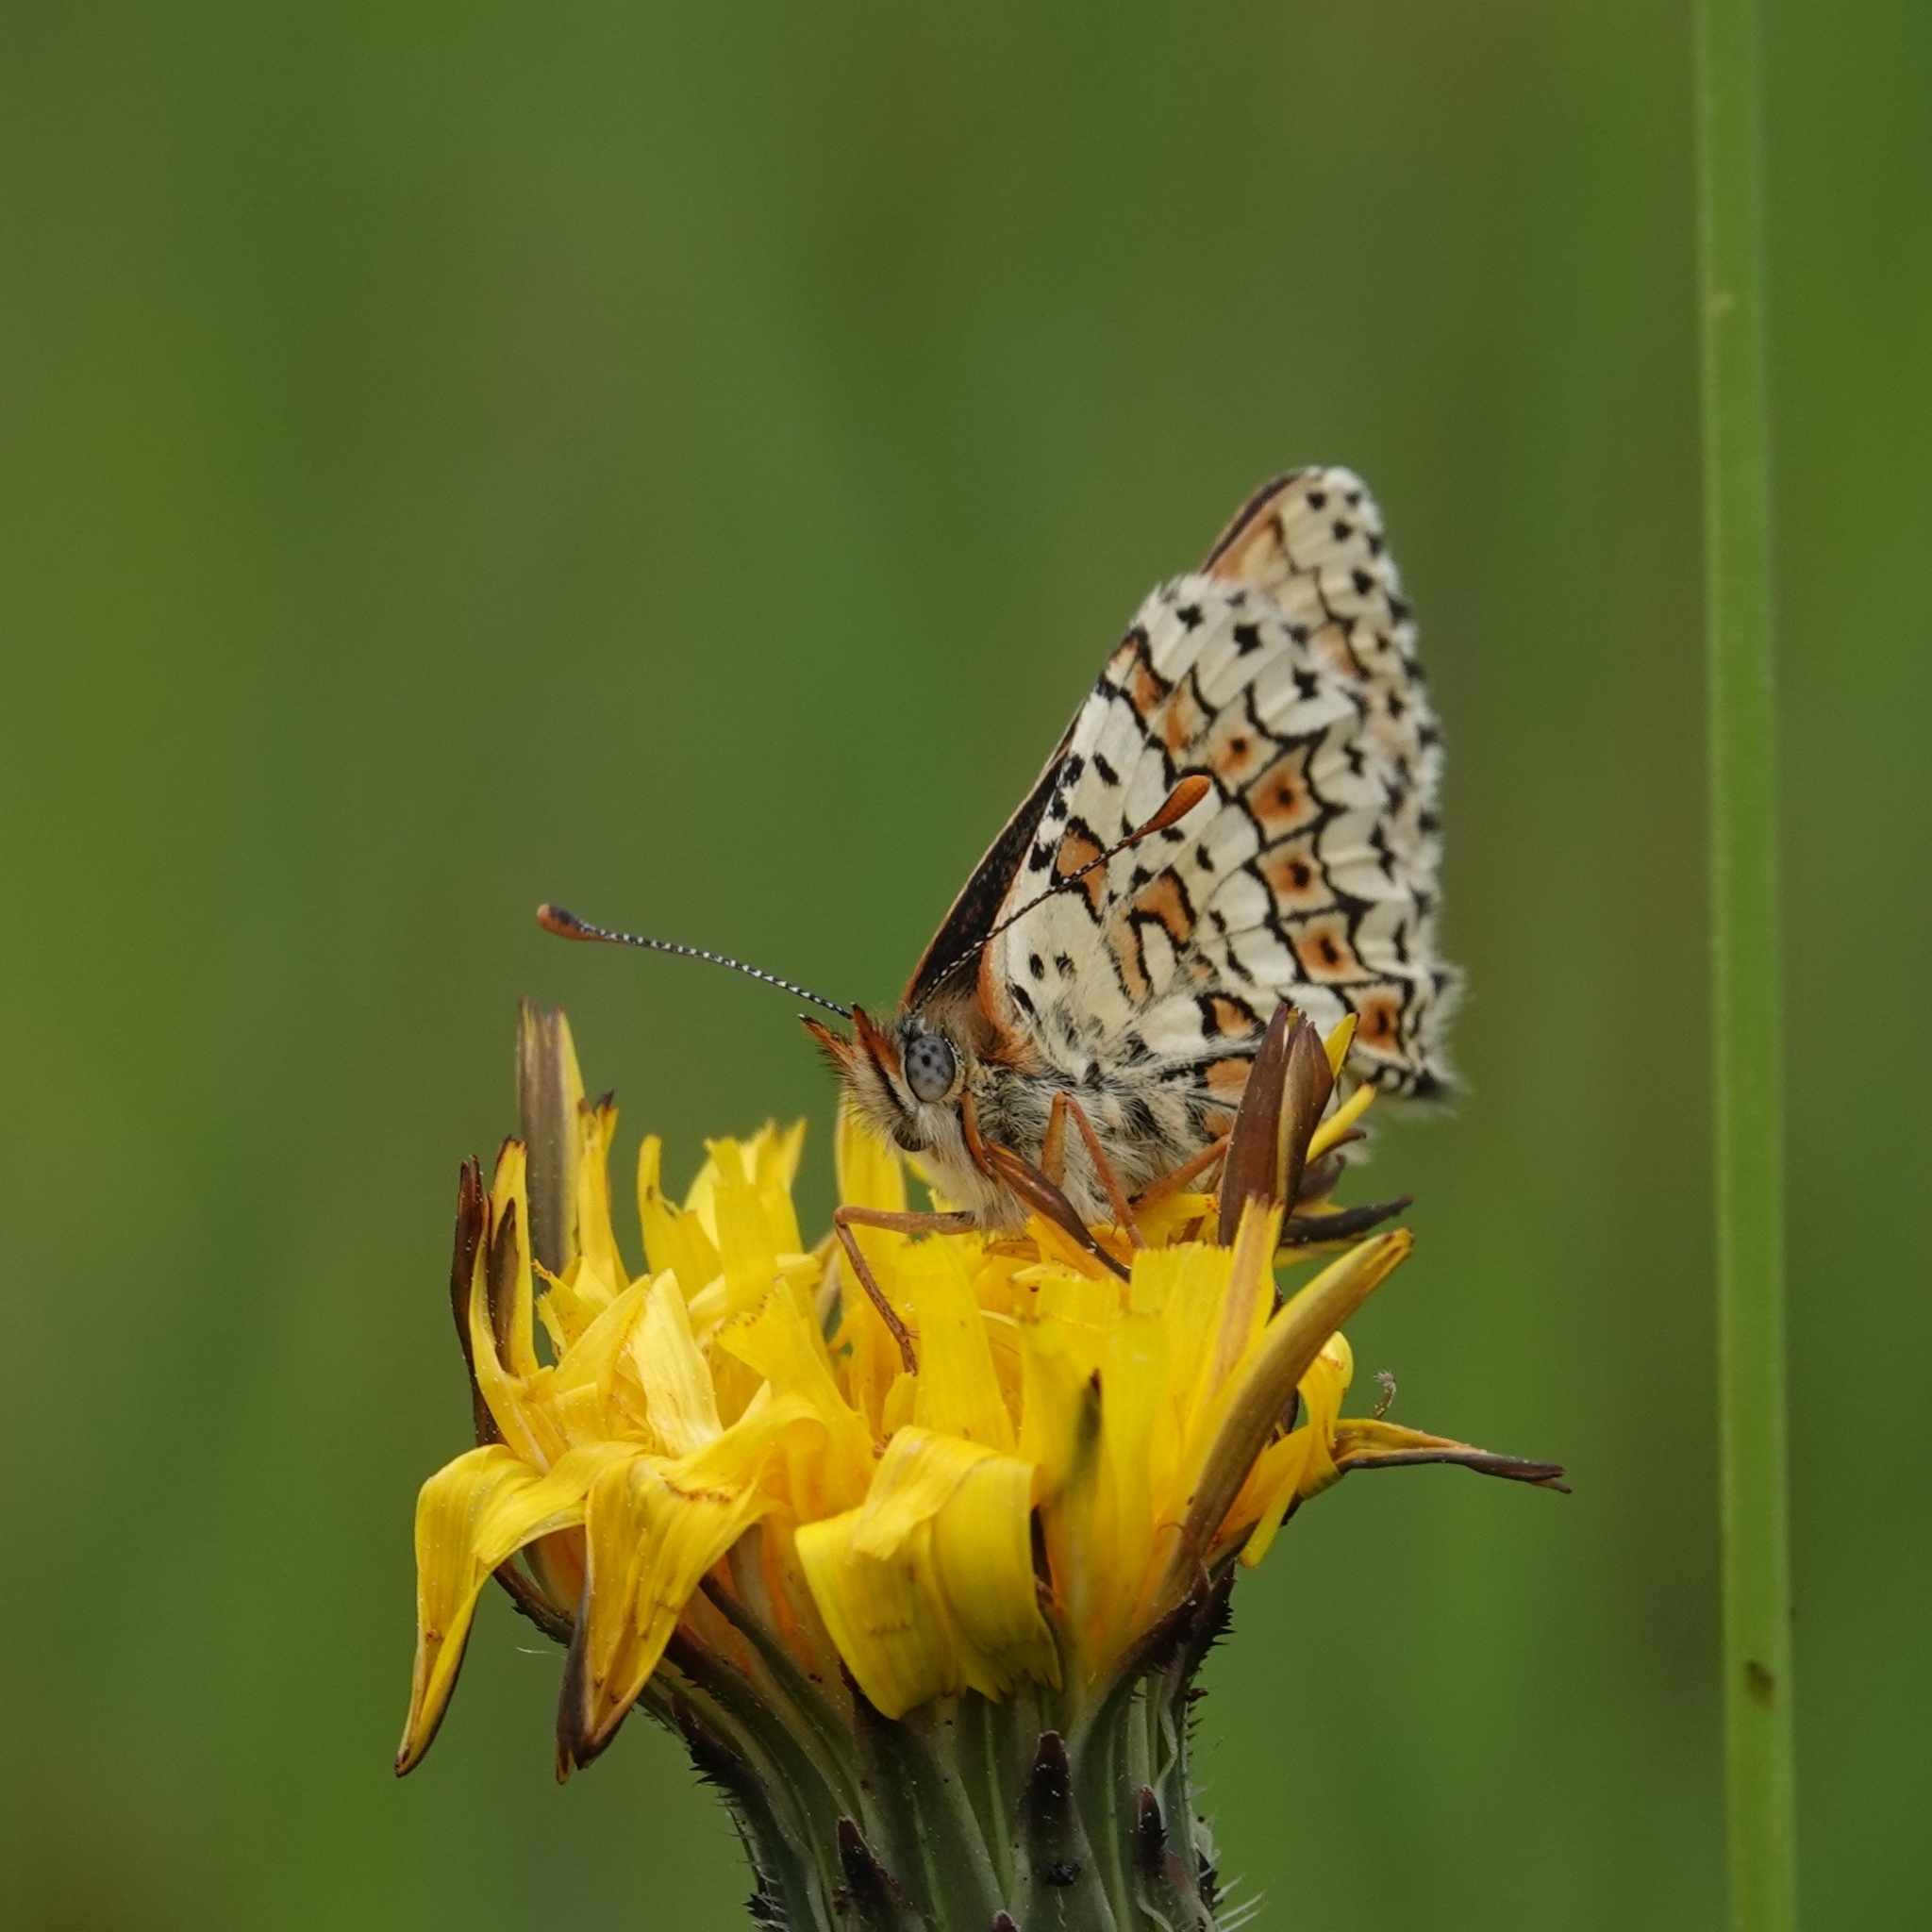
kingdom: Animalia
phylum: Arthropoda
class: Insecta
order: Lepidoptera
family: Nymphalidae
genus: Melitaea
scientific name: Melitaea cinxia
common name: Glanville fritillary
